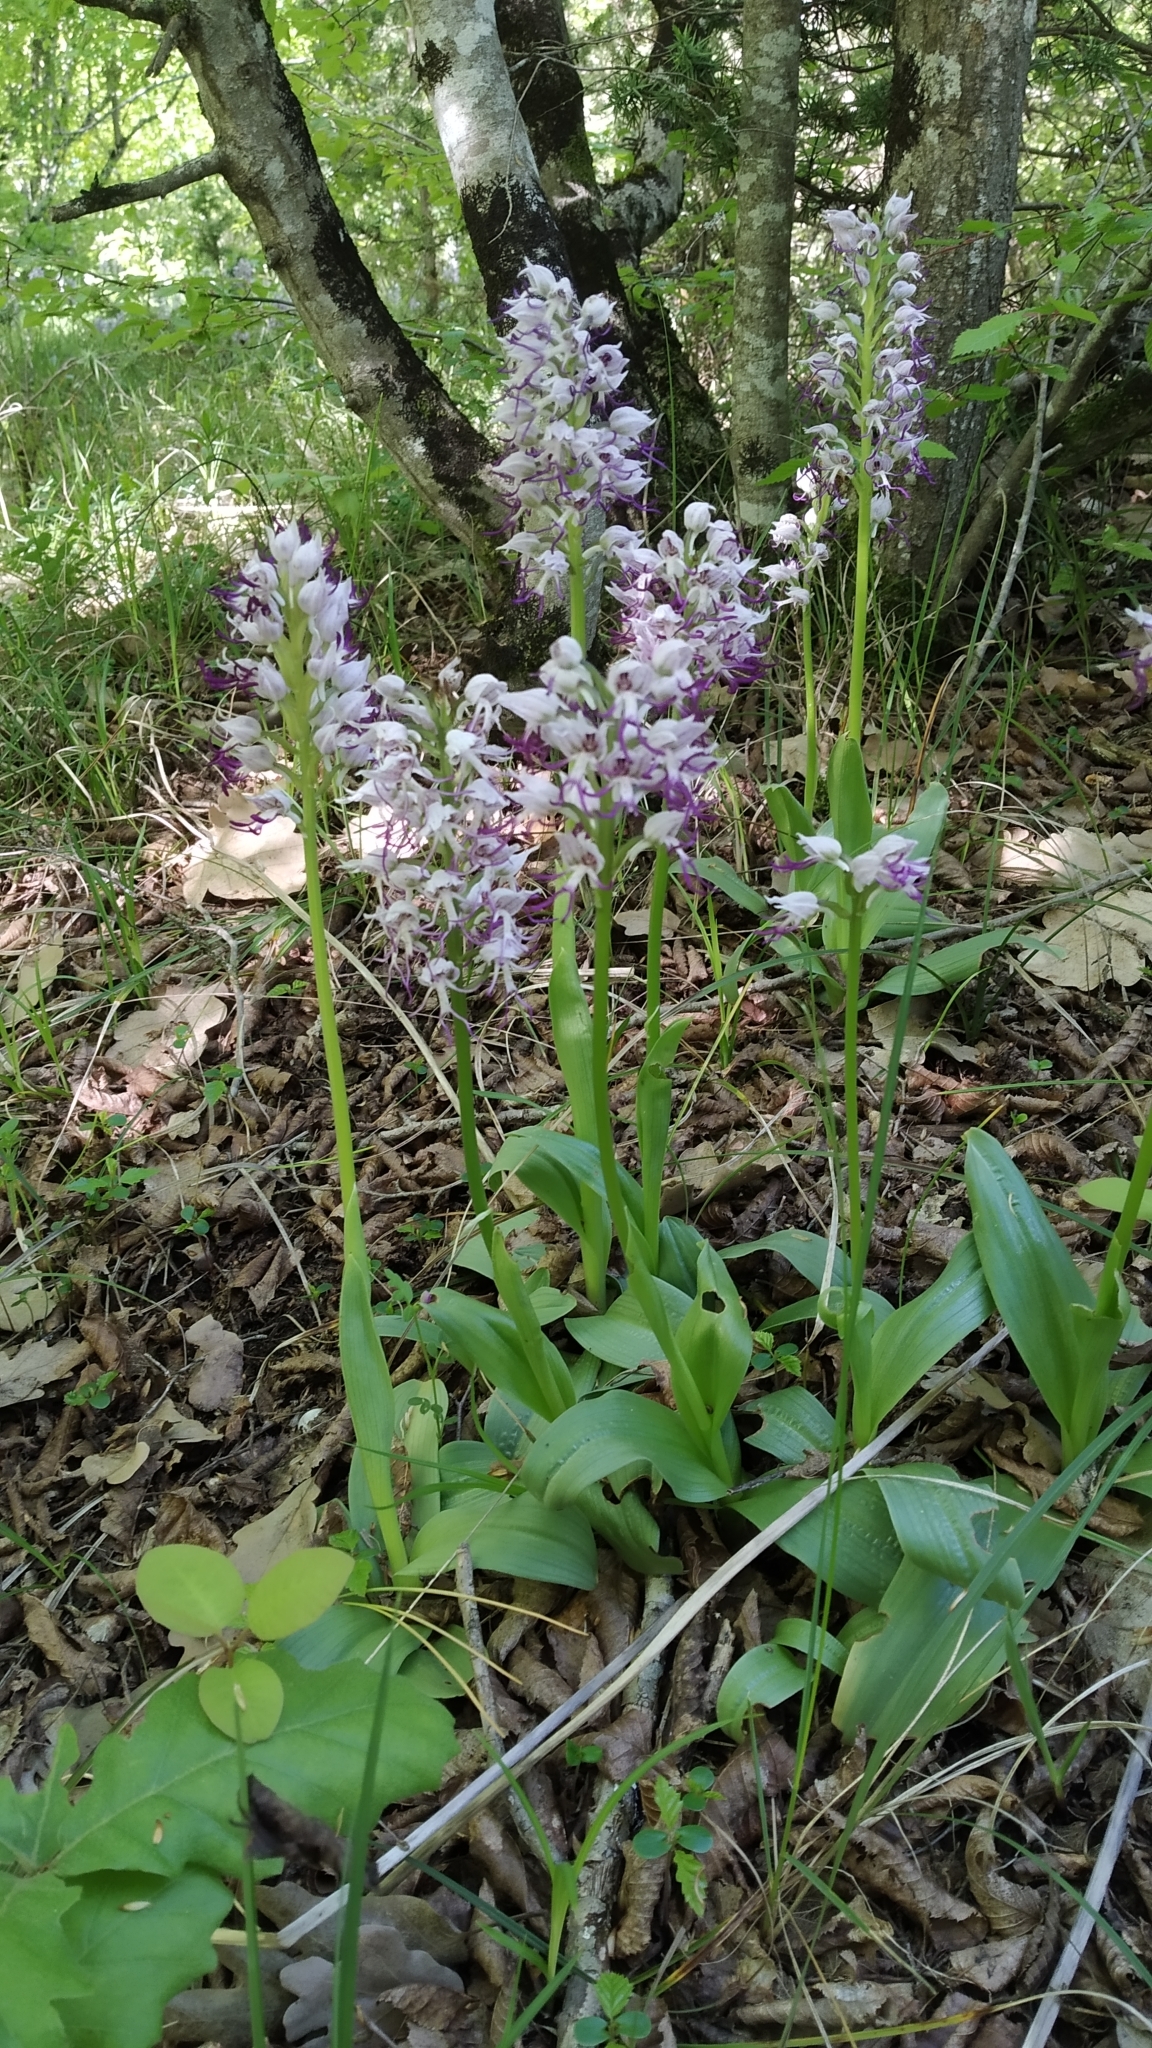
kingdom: Plantae
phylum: Tracheophyta
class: Liliopsida
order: Asparagales
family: Orchidaceae
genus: Orchis
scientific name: Orchis simia
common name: Monkey orchid
